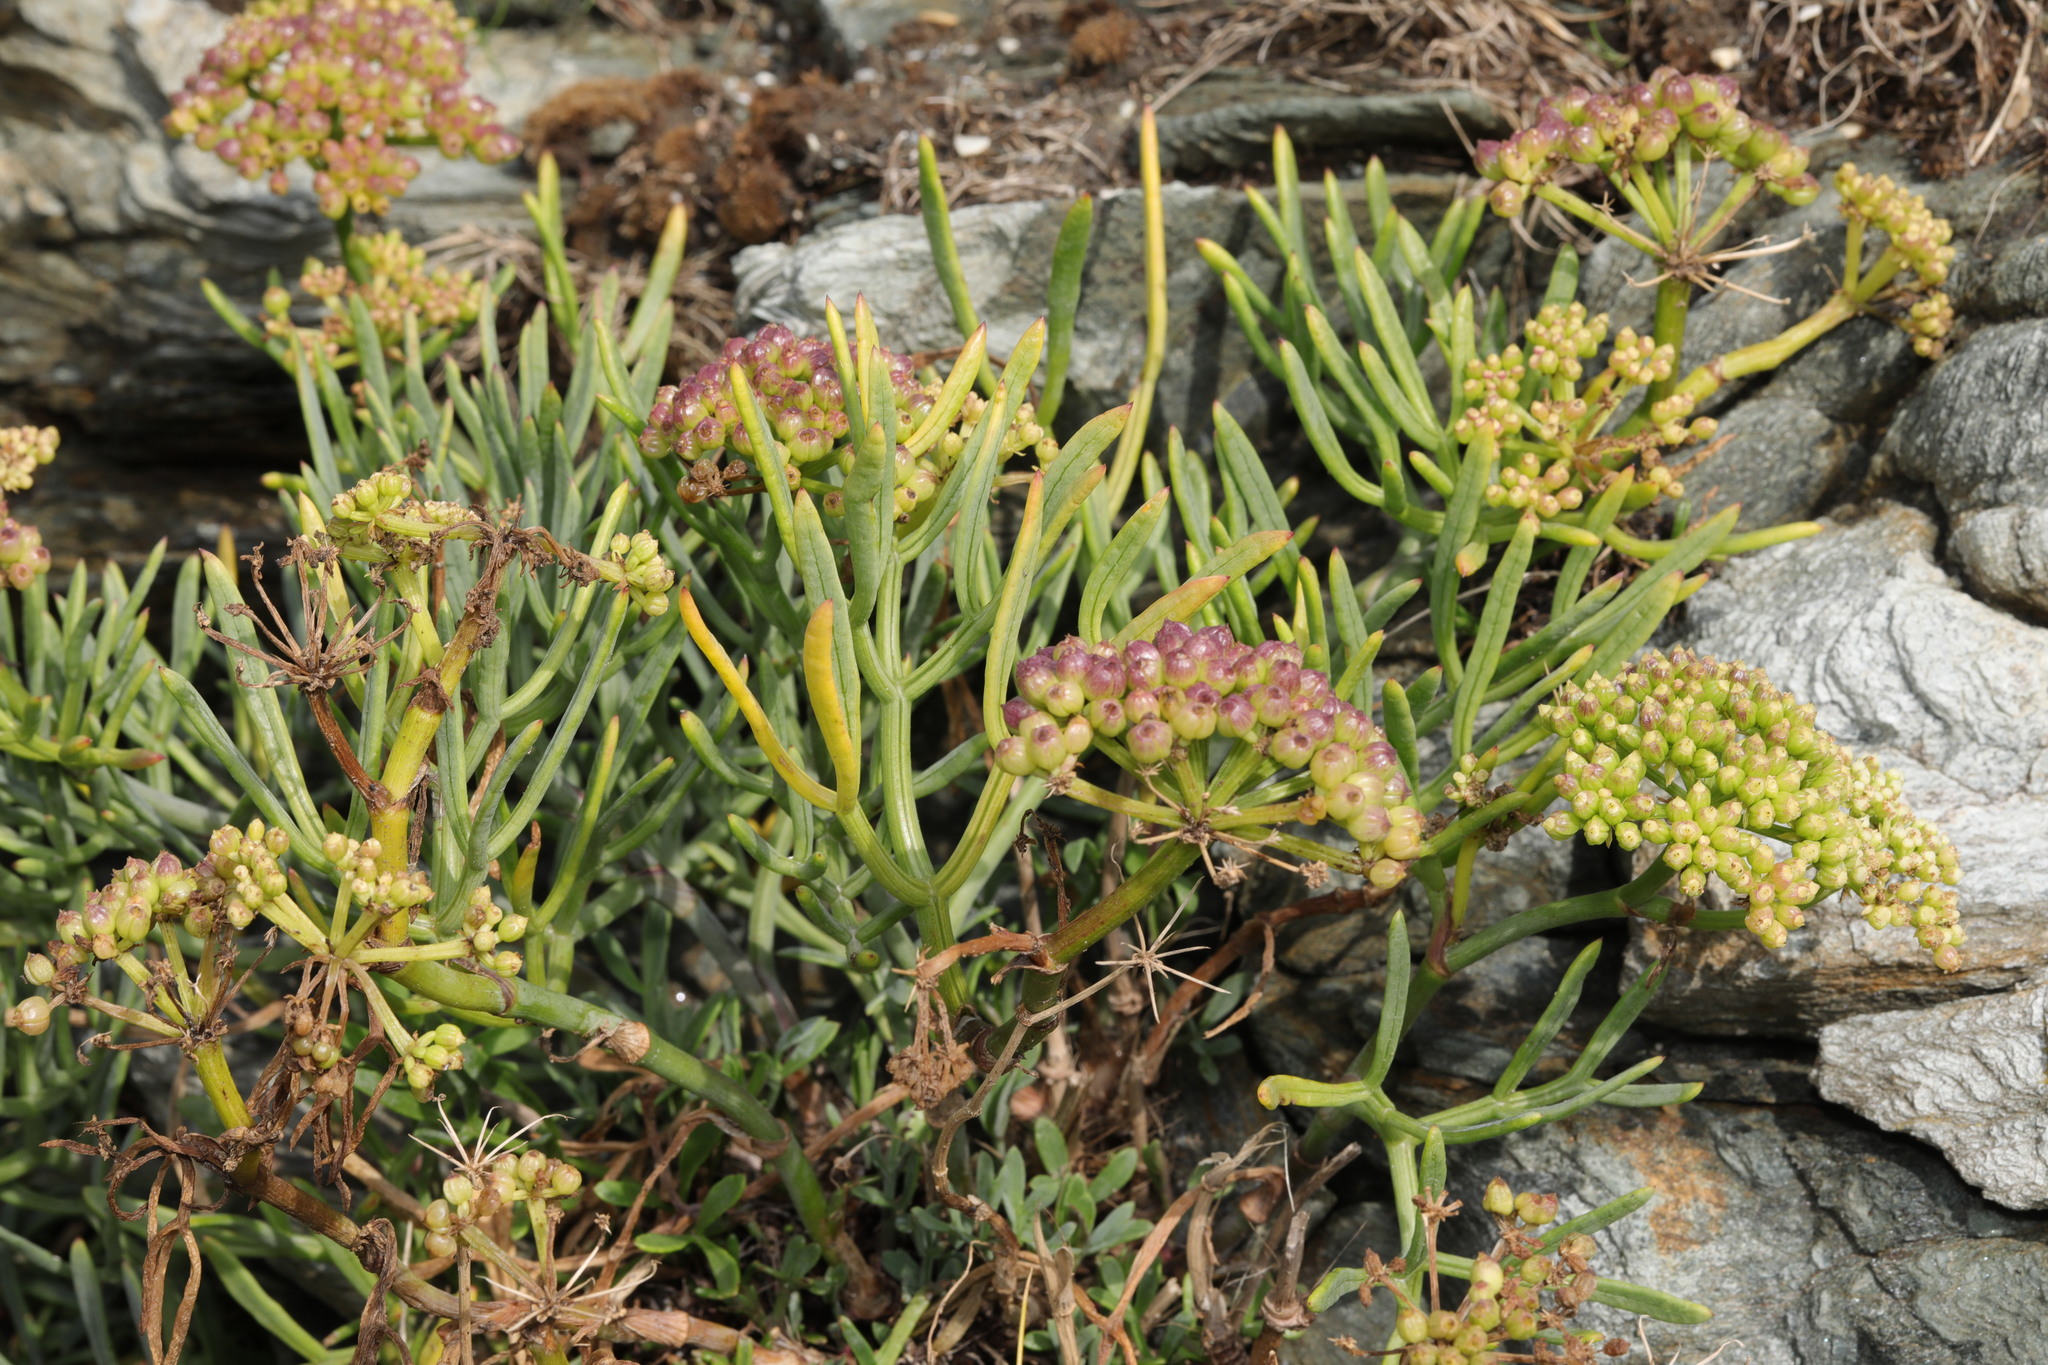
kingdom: Plantae
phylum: Tracheophyta
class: Magnoliopsida
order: Apiales
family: Apiaceae
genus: Crithmum
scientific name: Crithmum maritimum
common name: Rock samphire
